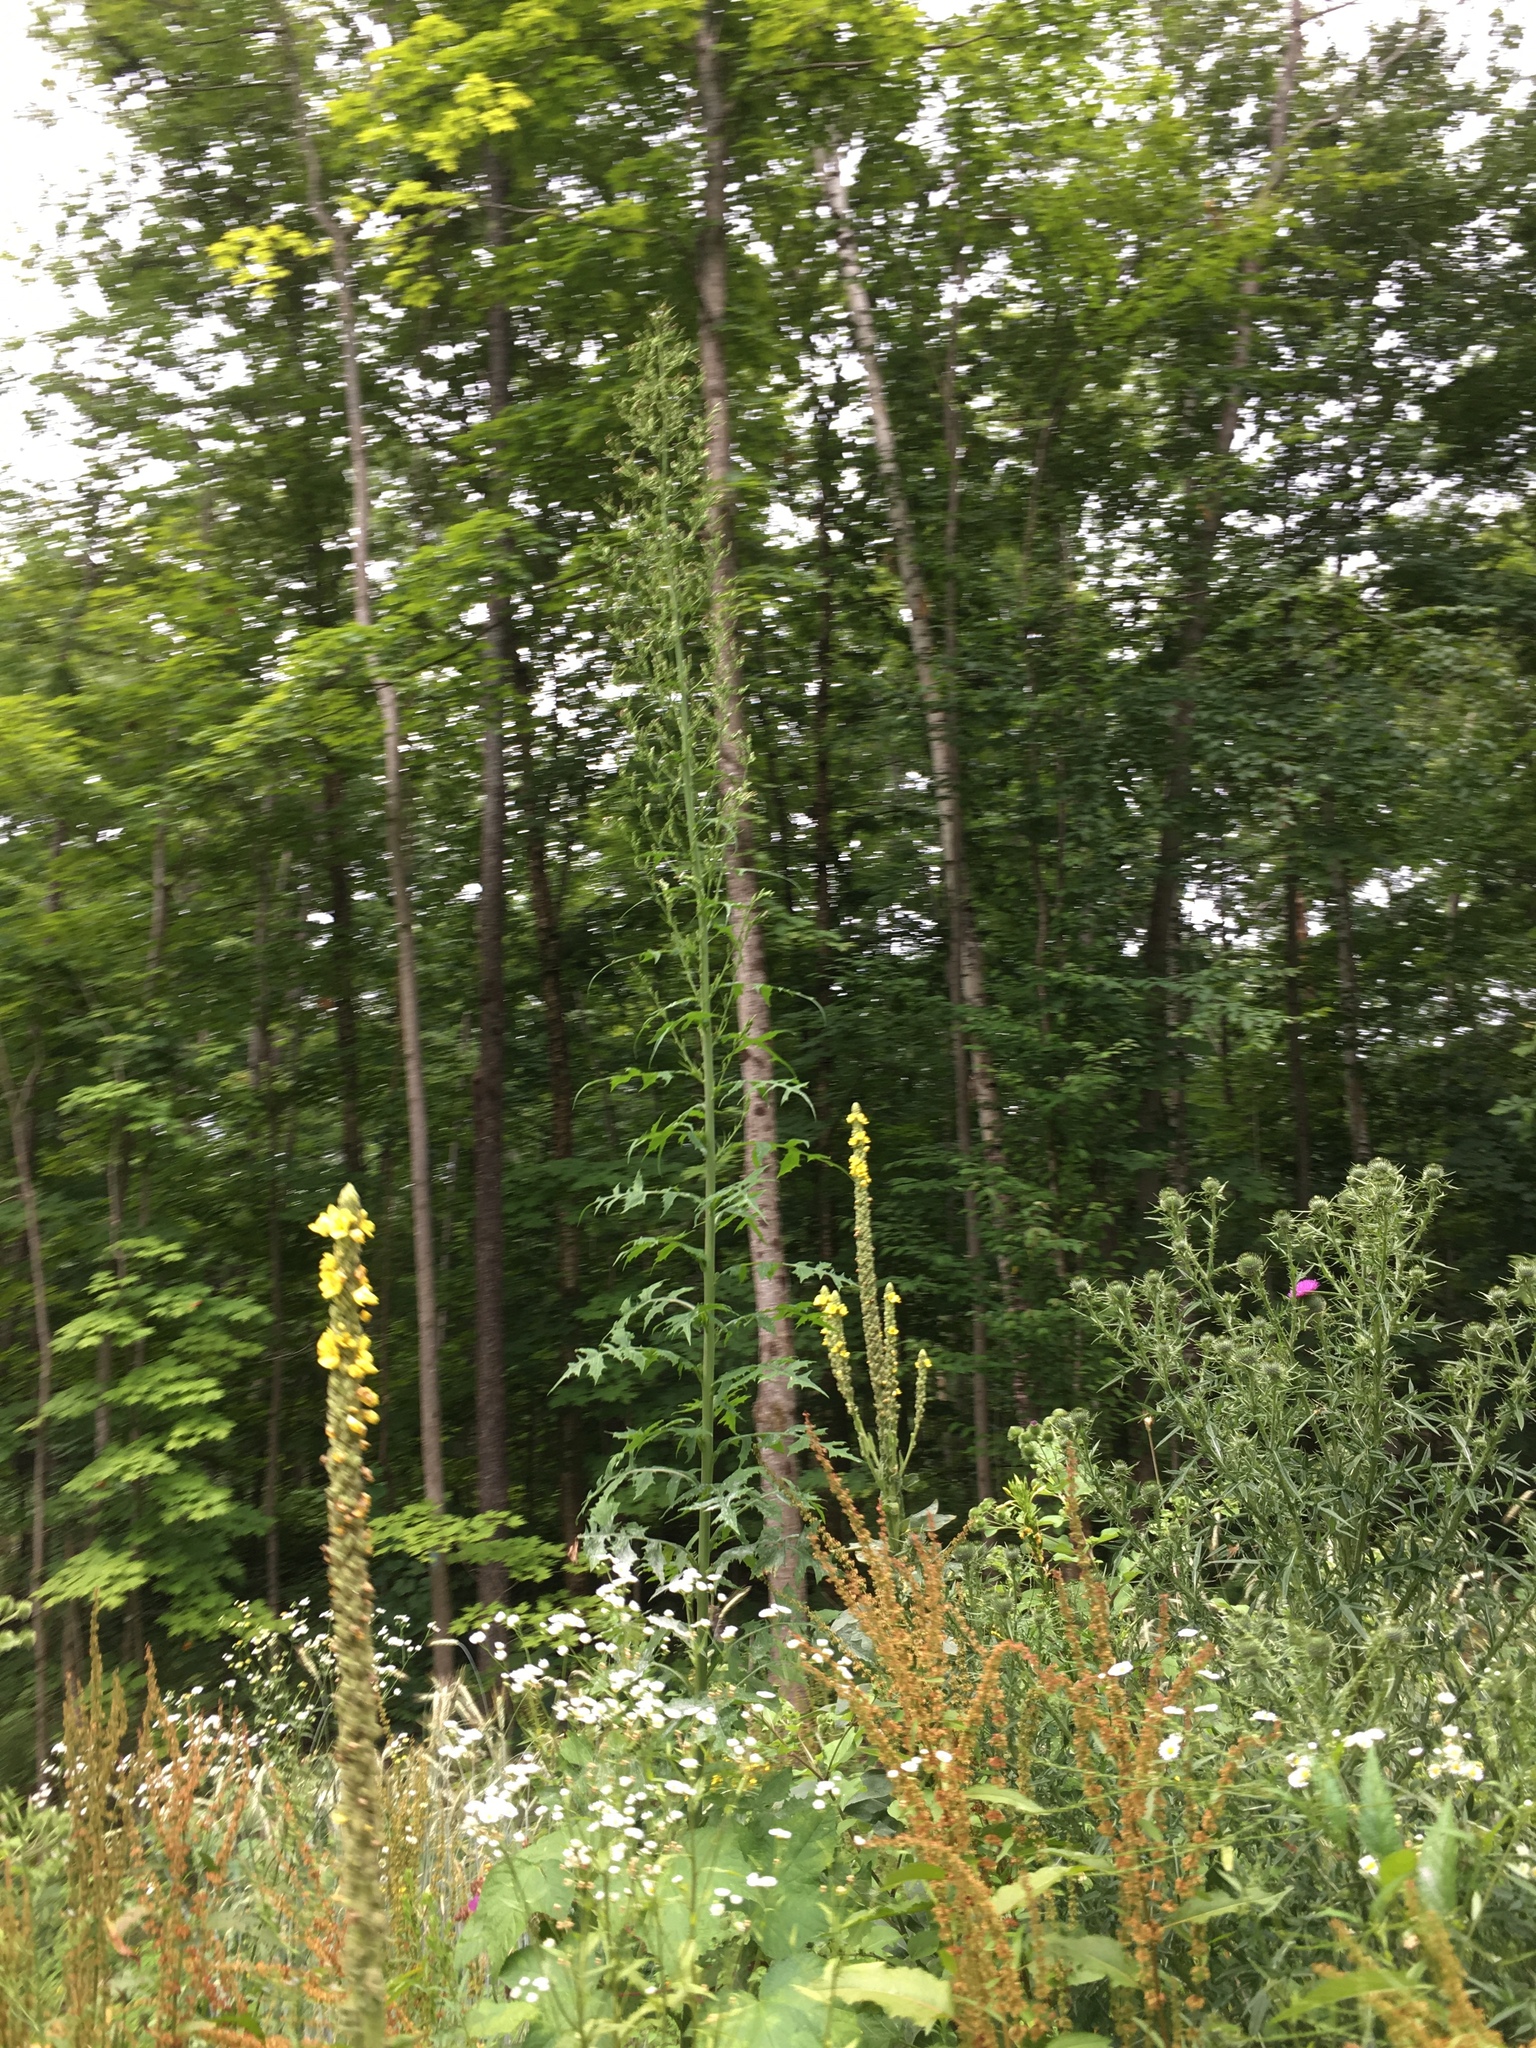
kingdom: Plantae
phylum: Tracheophyta
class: Magnoliopsida
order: Asterales
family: Asteraceae
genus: Lactuca
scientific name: Lactuca biennis
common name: Blue wood lettuce
